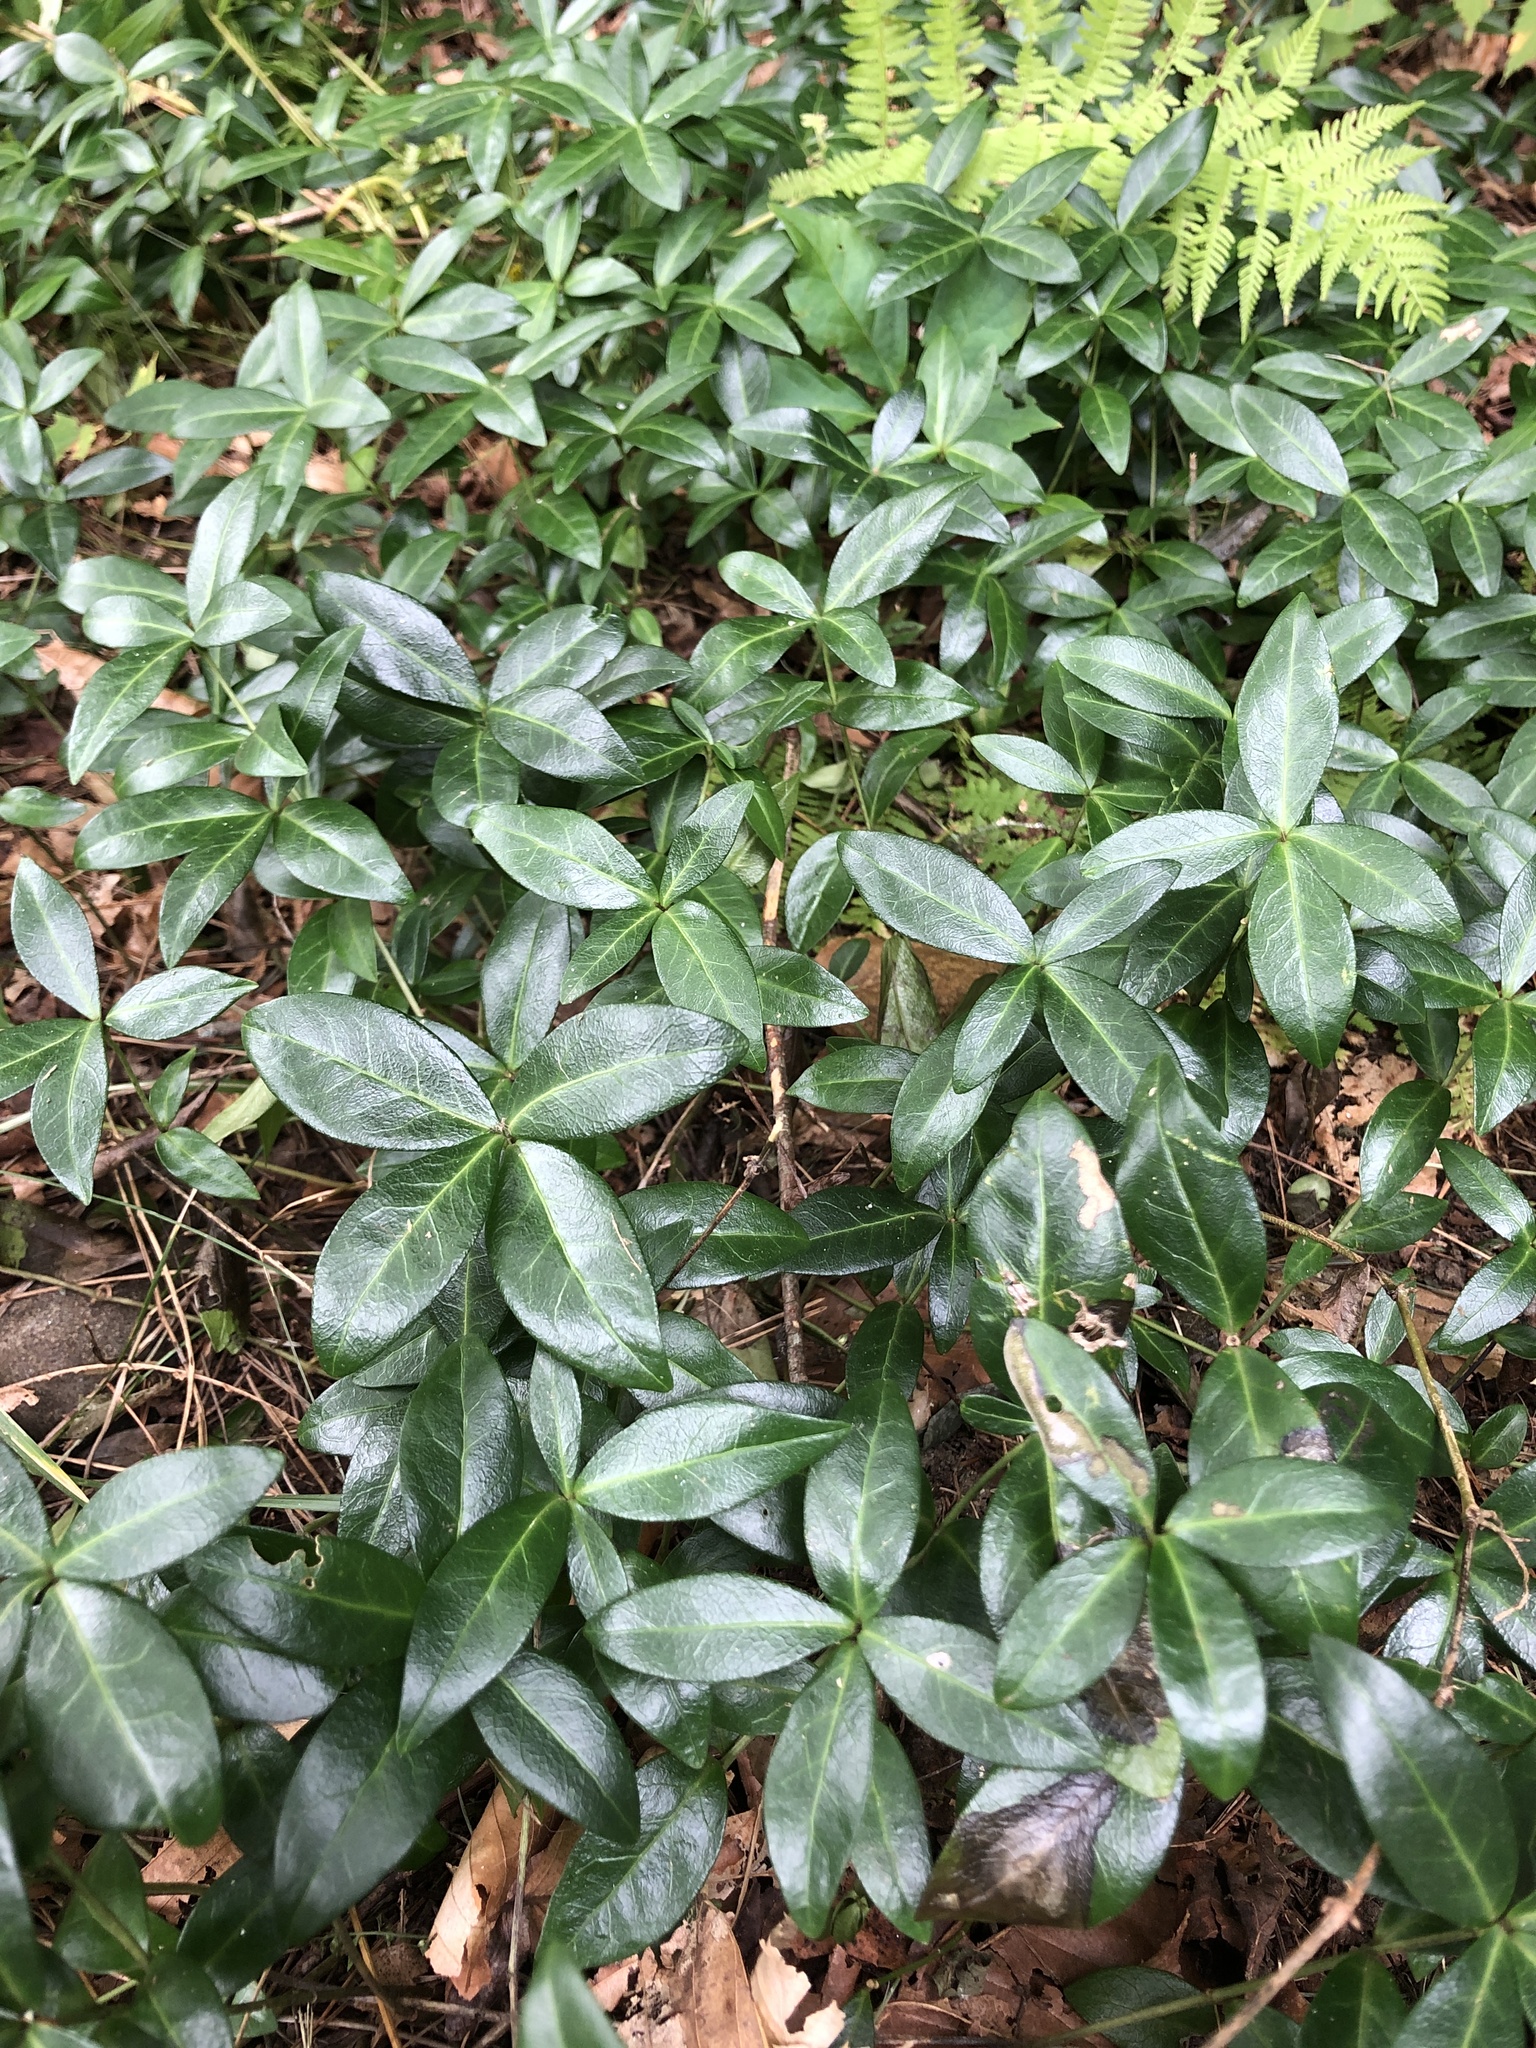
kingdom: Plantae
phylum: Tracheophyta
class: Magnoliopsida
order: Gentianales
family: Apocynaceae
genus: Vinca
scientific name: Vinca minor
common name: Lesser periwinkle
